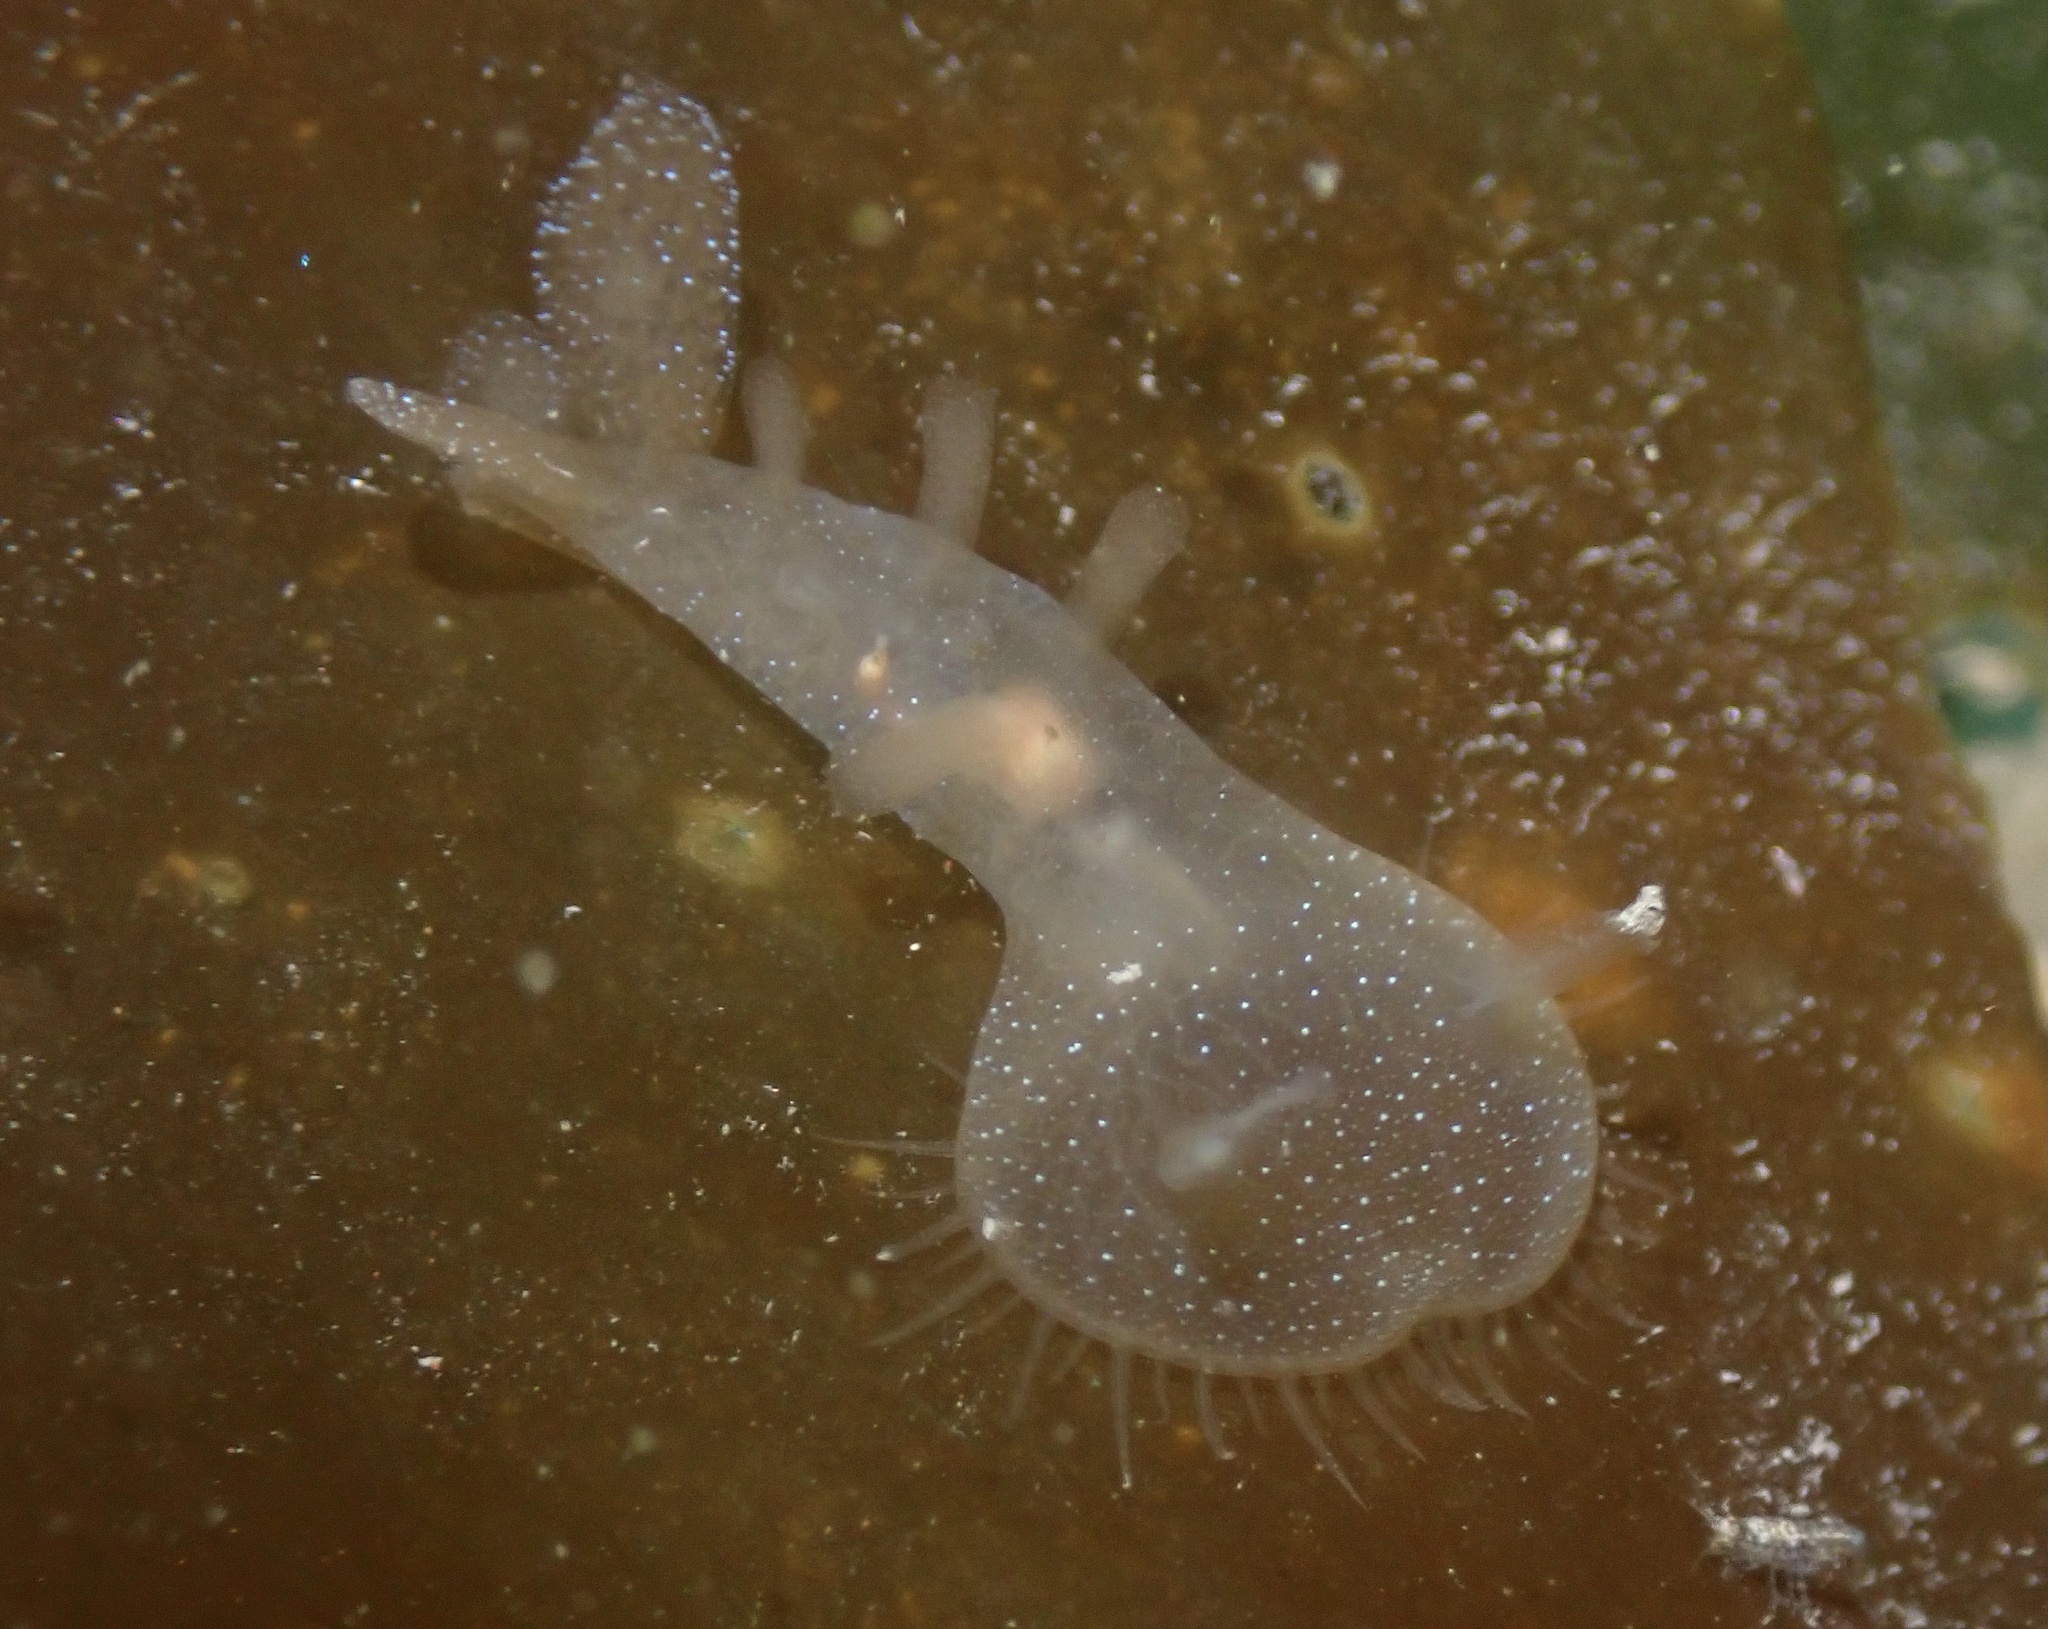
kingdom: Animalia
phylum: Mollusca
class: Gastropoda
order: Nudibranchia
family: Tethydidae
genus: Melibe
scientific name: Melibe leonina
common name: Lion nudibranch
